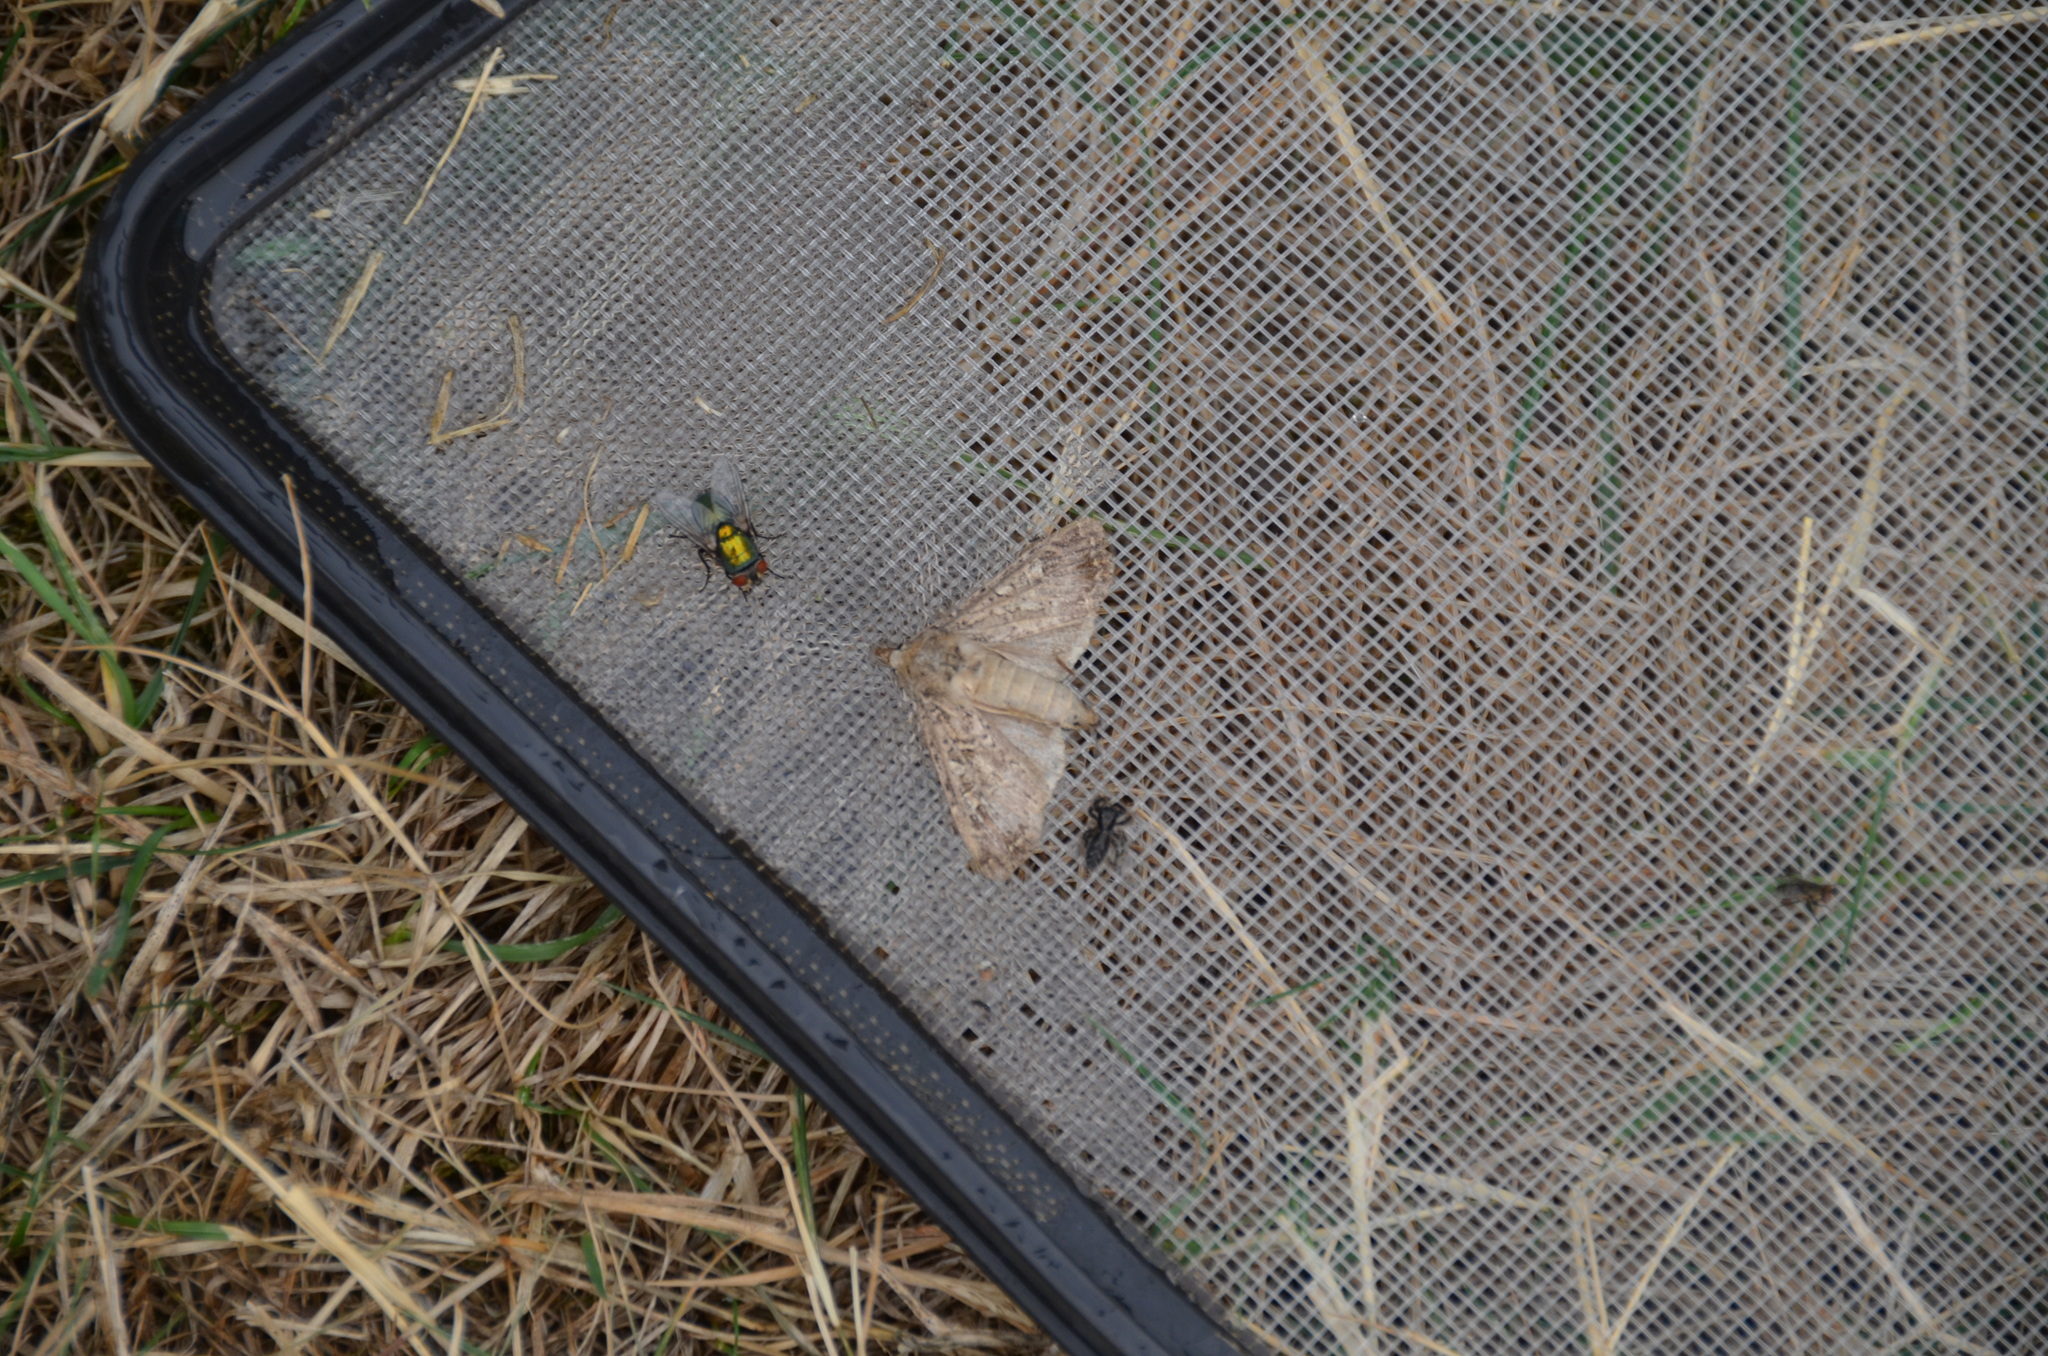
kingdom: Animalia
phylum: Arthropoda
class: Arachnida
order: Araneae
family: Salticidae
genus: Platycryptus
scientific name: Platycryptus californicus
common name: Jumping spiders
